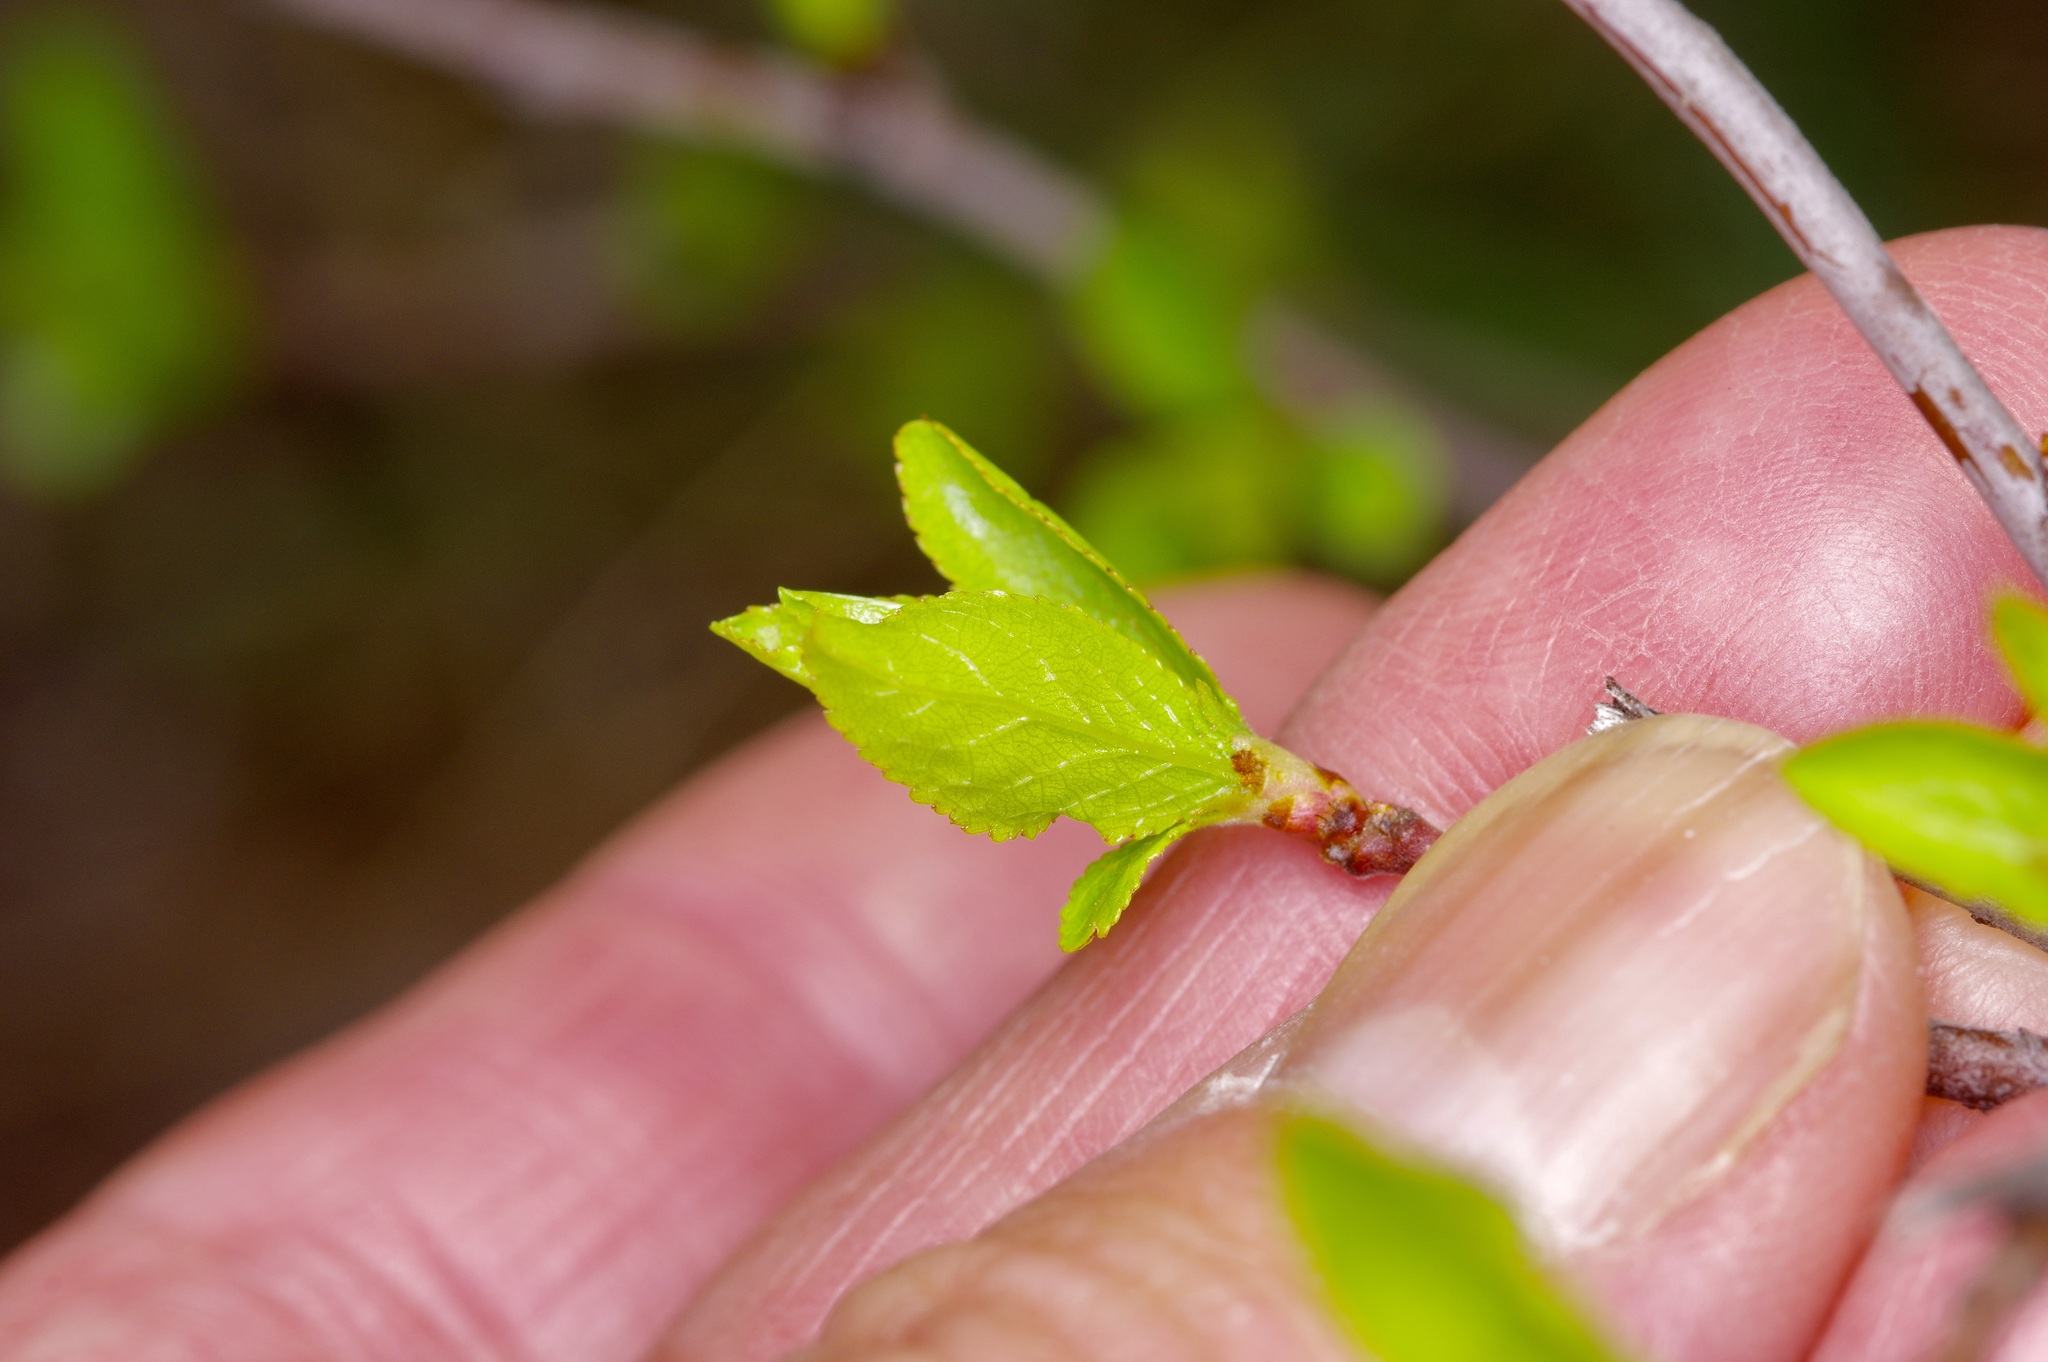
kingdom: Plantae
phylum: Tracheophyta
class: Magnoliopsida
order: Lamiales
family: Oleaceae
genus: Forestiera
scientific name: Forestiera pubescens
